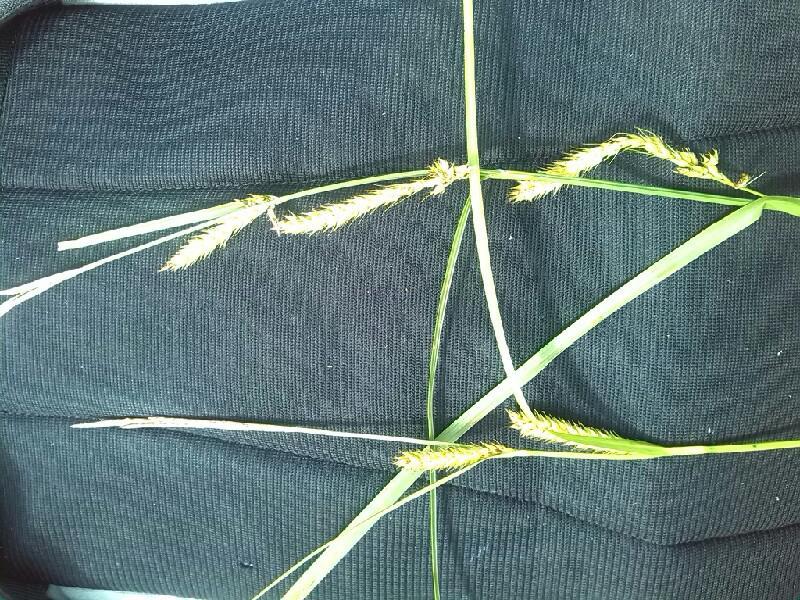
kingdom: Plantae
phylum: Tracheophyta
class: Liliopsida
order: Poales
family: Cyperaceae
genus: Carex
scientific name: Carex walasii
